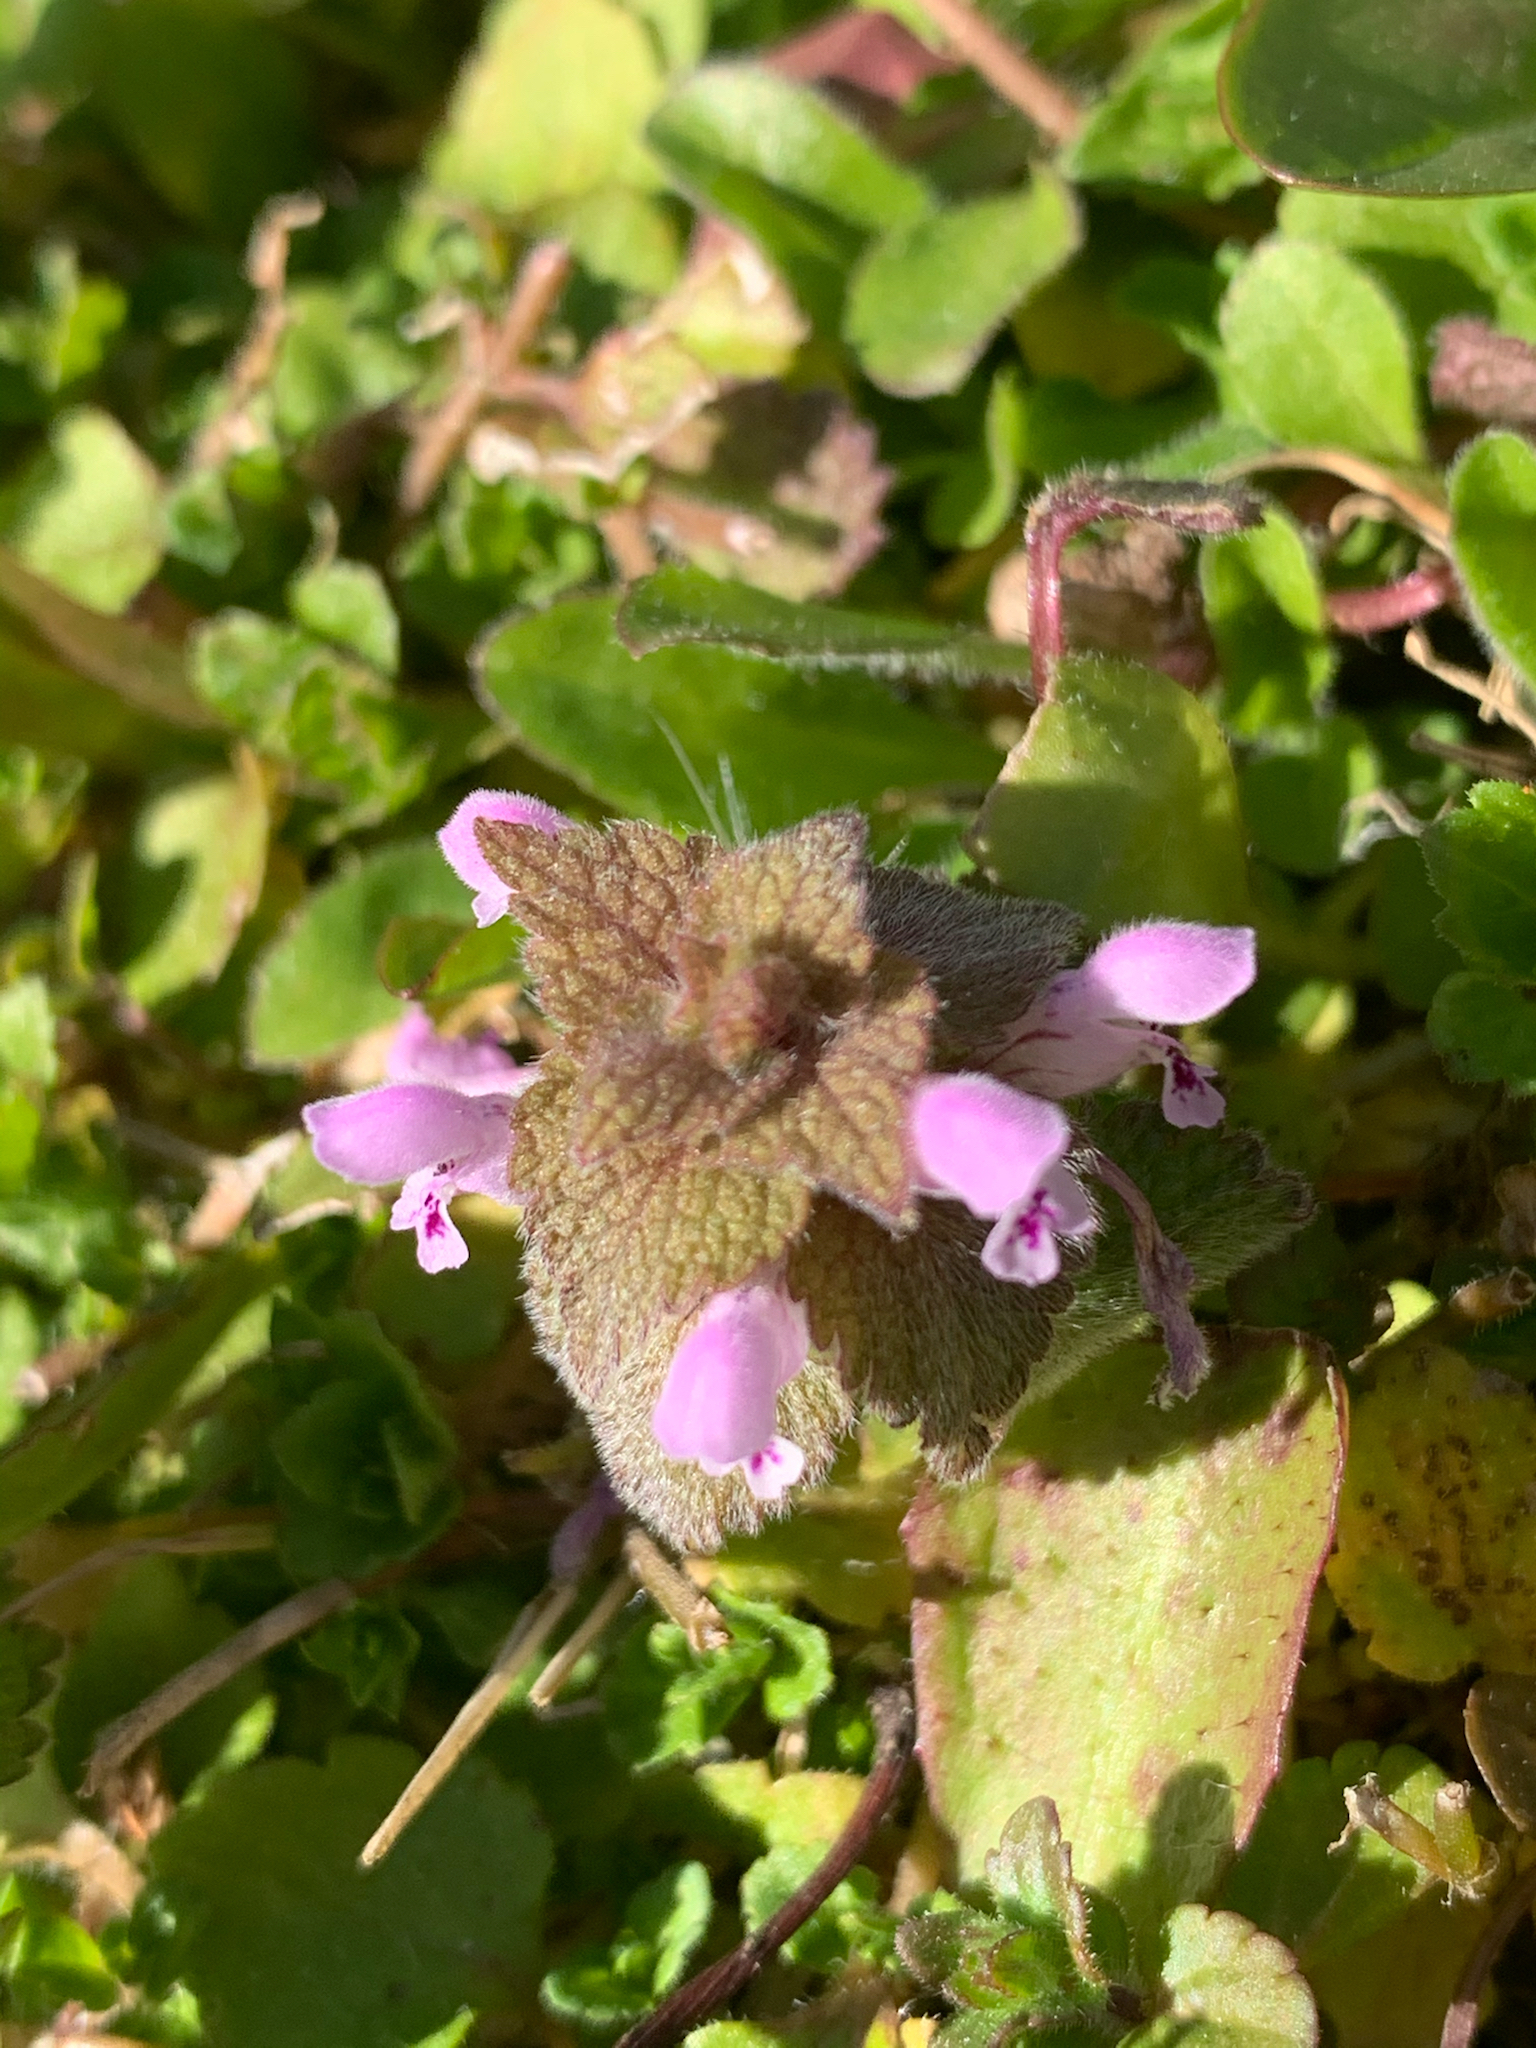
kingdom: Plantae
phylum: Tracheophyta
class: Magnoliopsida
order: Lamiales
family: Lamiaceae
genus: Lamium
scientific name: Lamium purpureum
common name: Red dead-nettle
